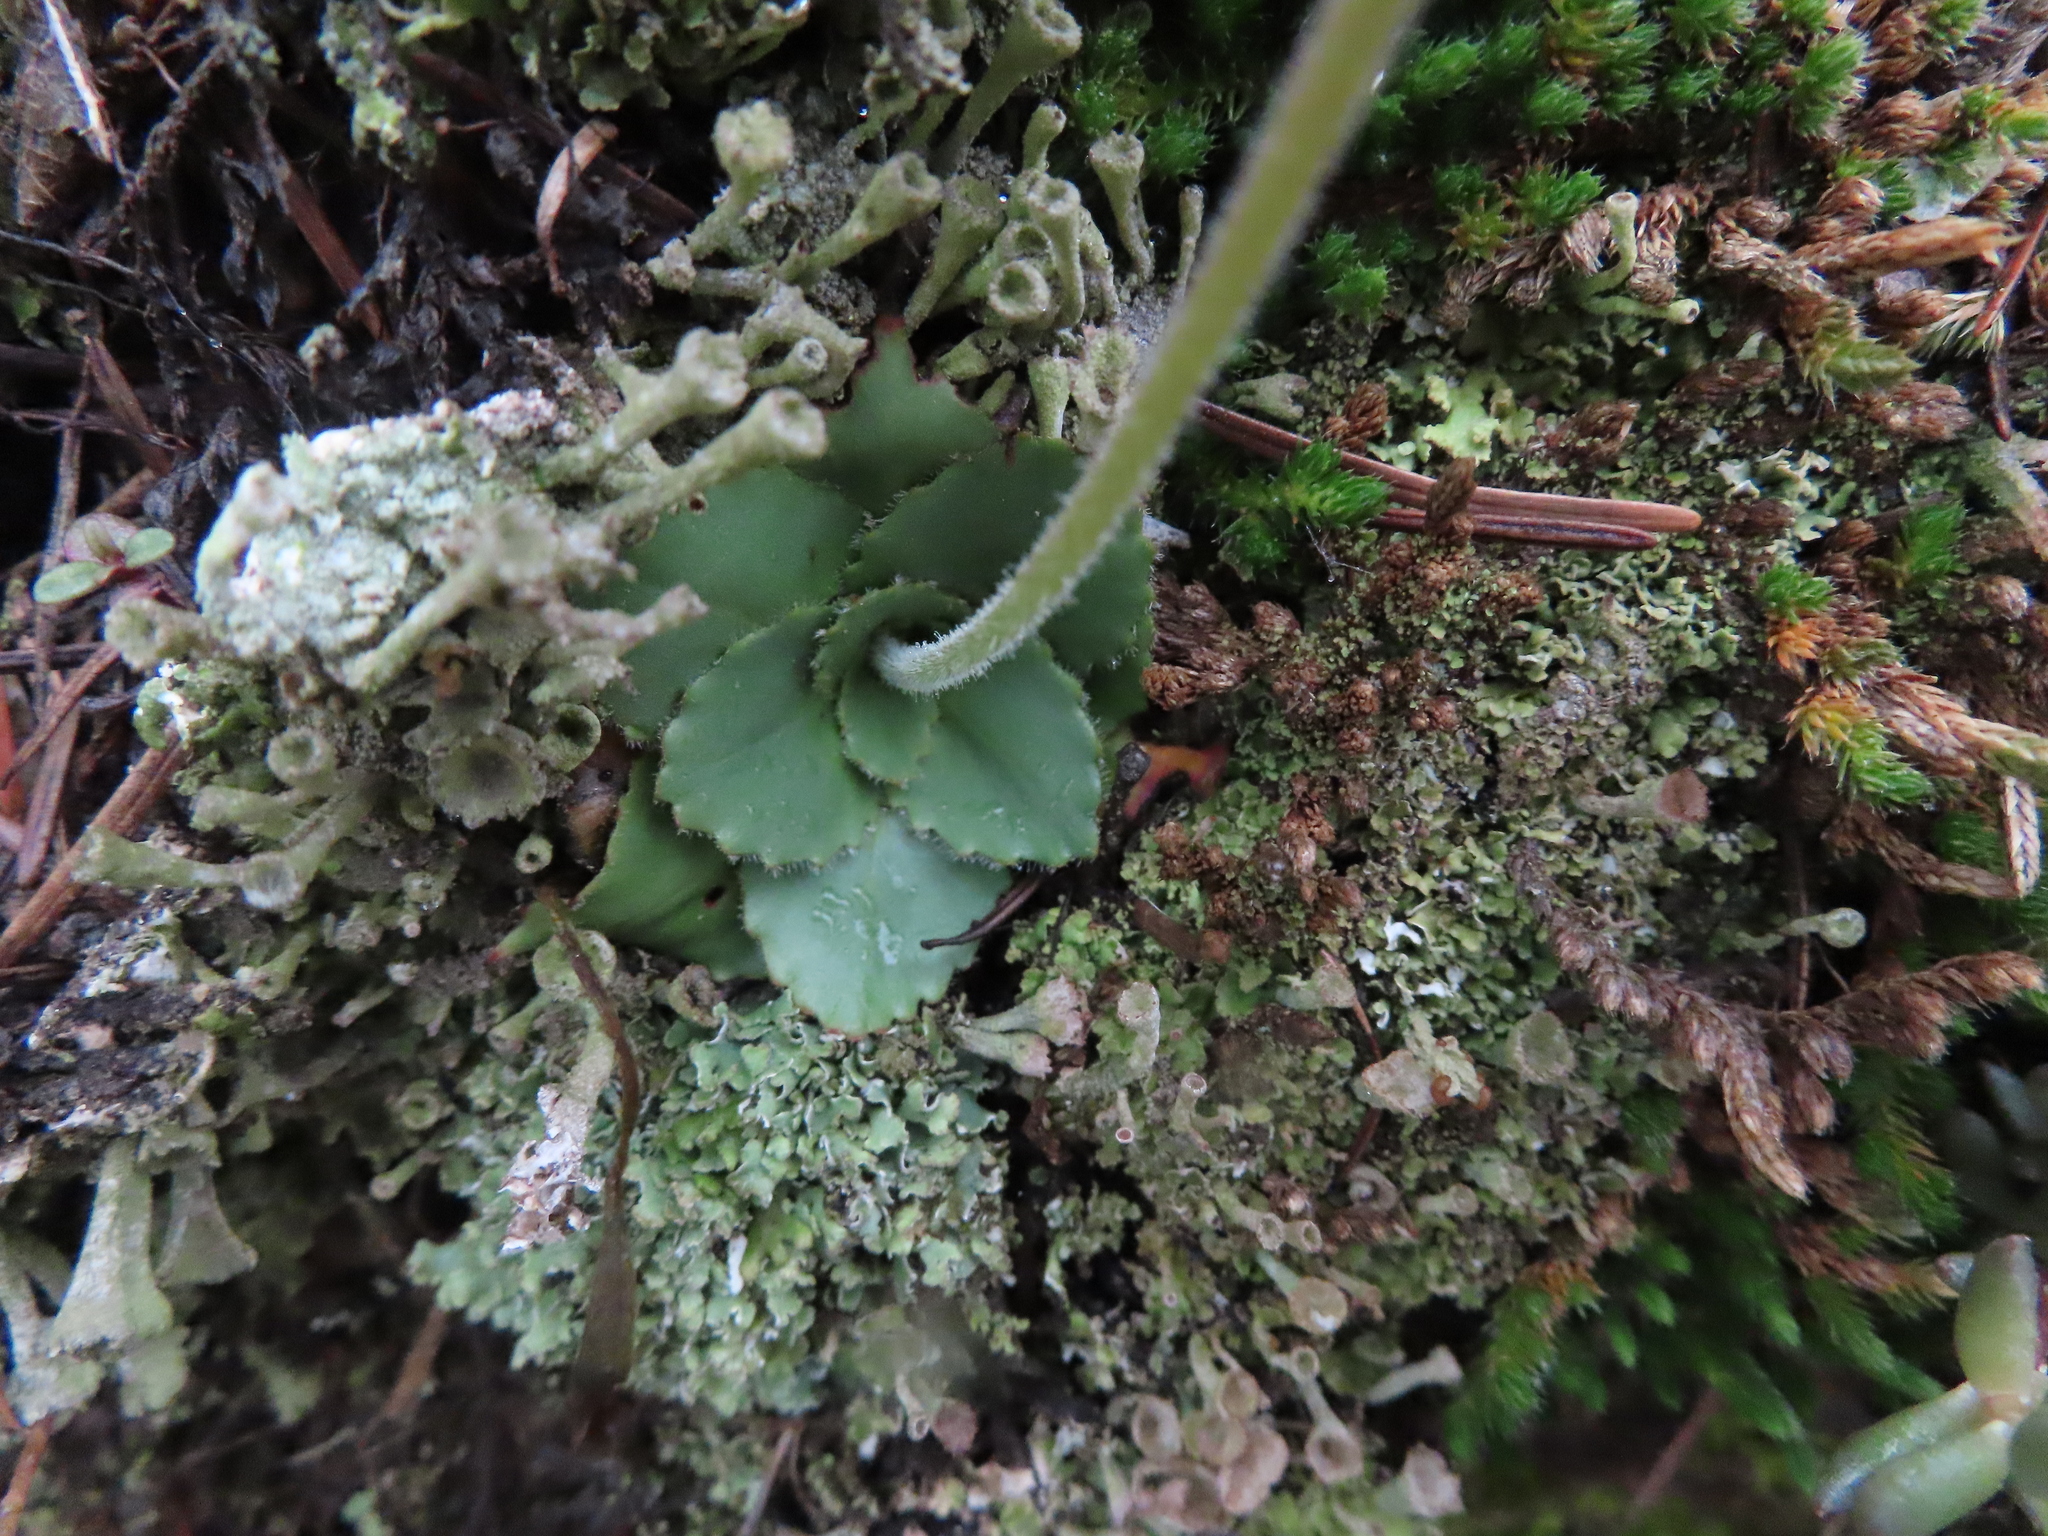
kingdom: Plantae
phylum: Tracheophyta
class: Magnoliopsida
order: Saxifragales
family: Saxifragaceae
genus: Micranthes
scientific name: Micranthes rhomboidea
